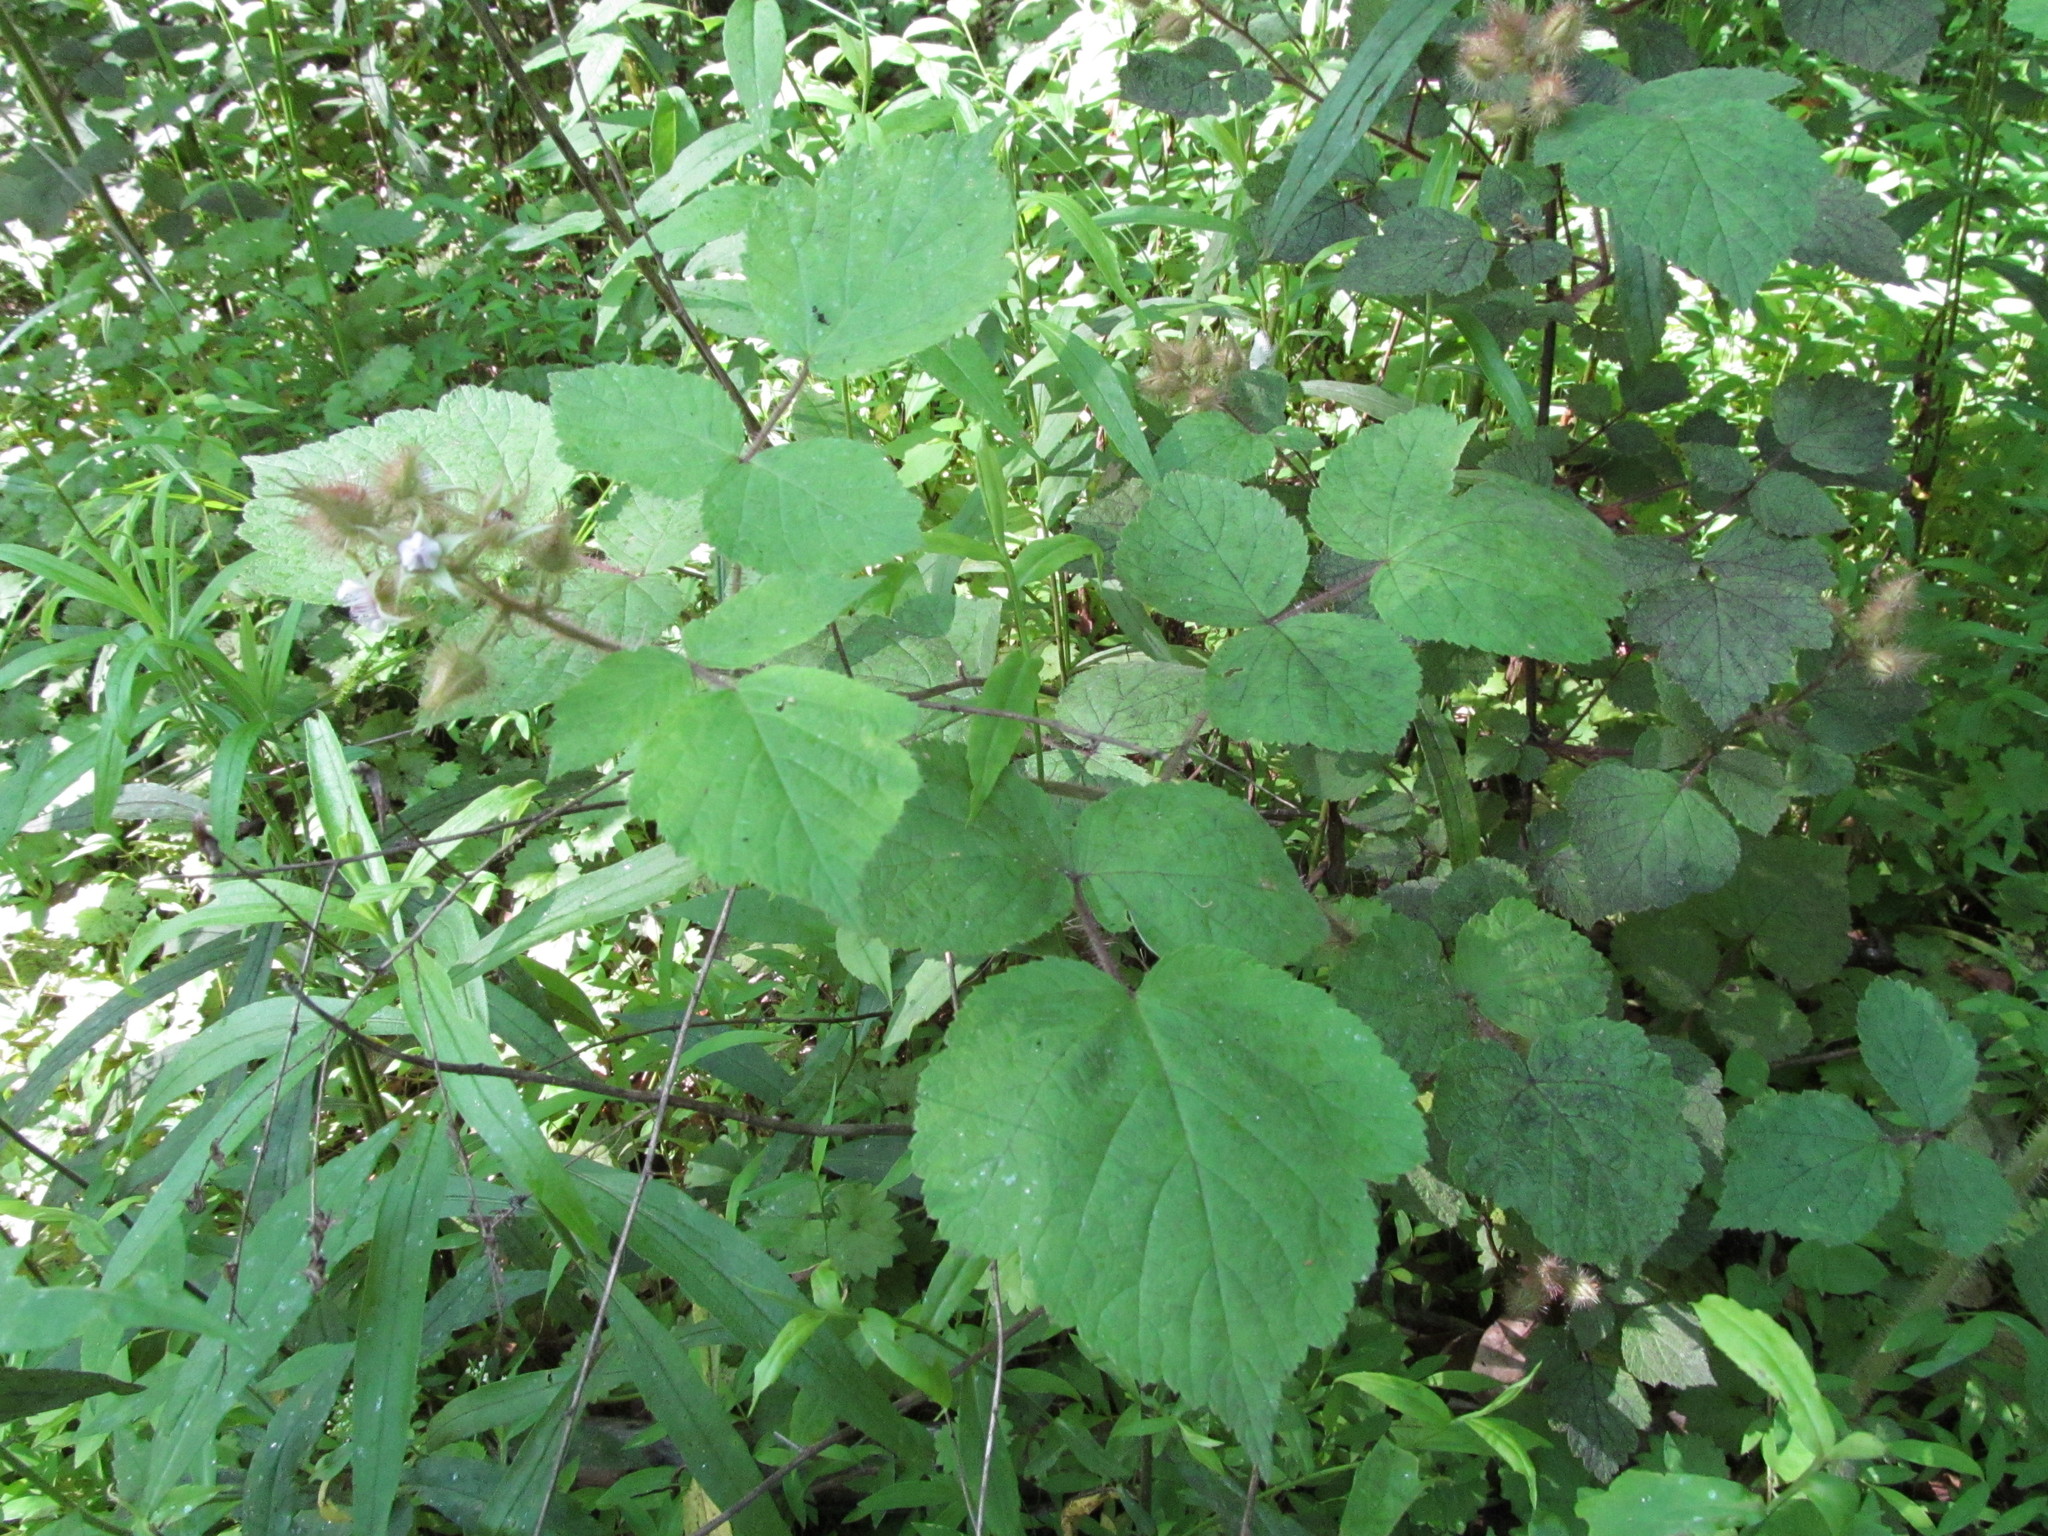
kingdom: Plantae
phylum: Tracheophyta
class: Magnoliopsida
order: Rosales
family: Rosaceae
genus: Rubus
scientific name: Rubus phoenicolasius
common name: Japanese wineberry
